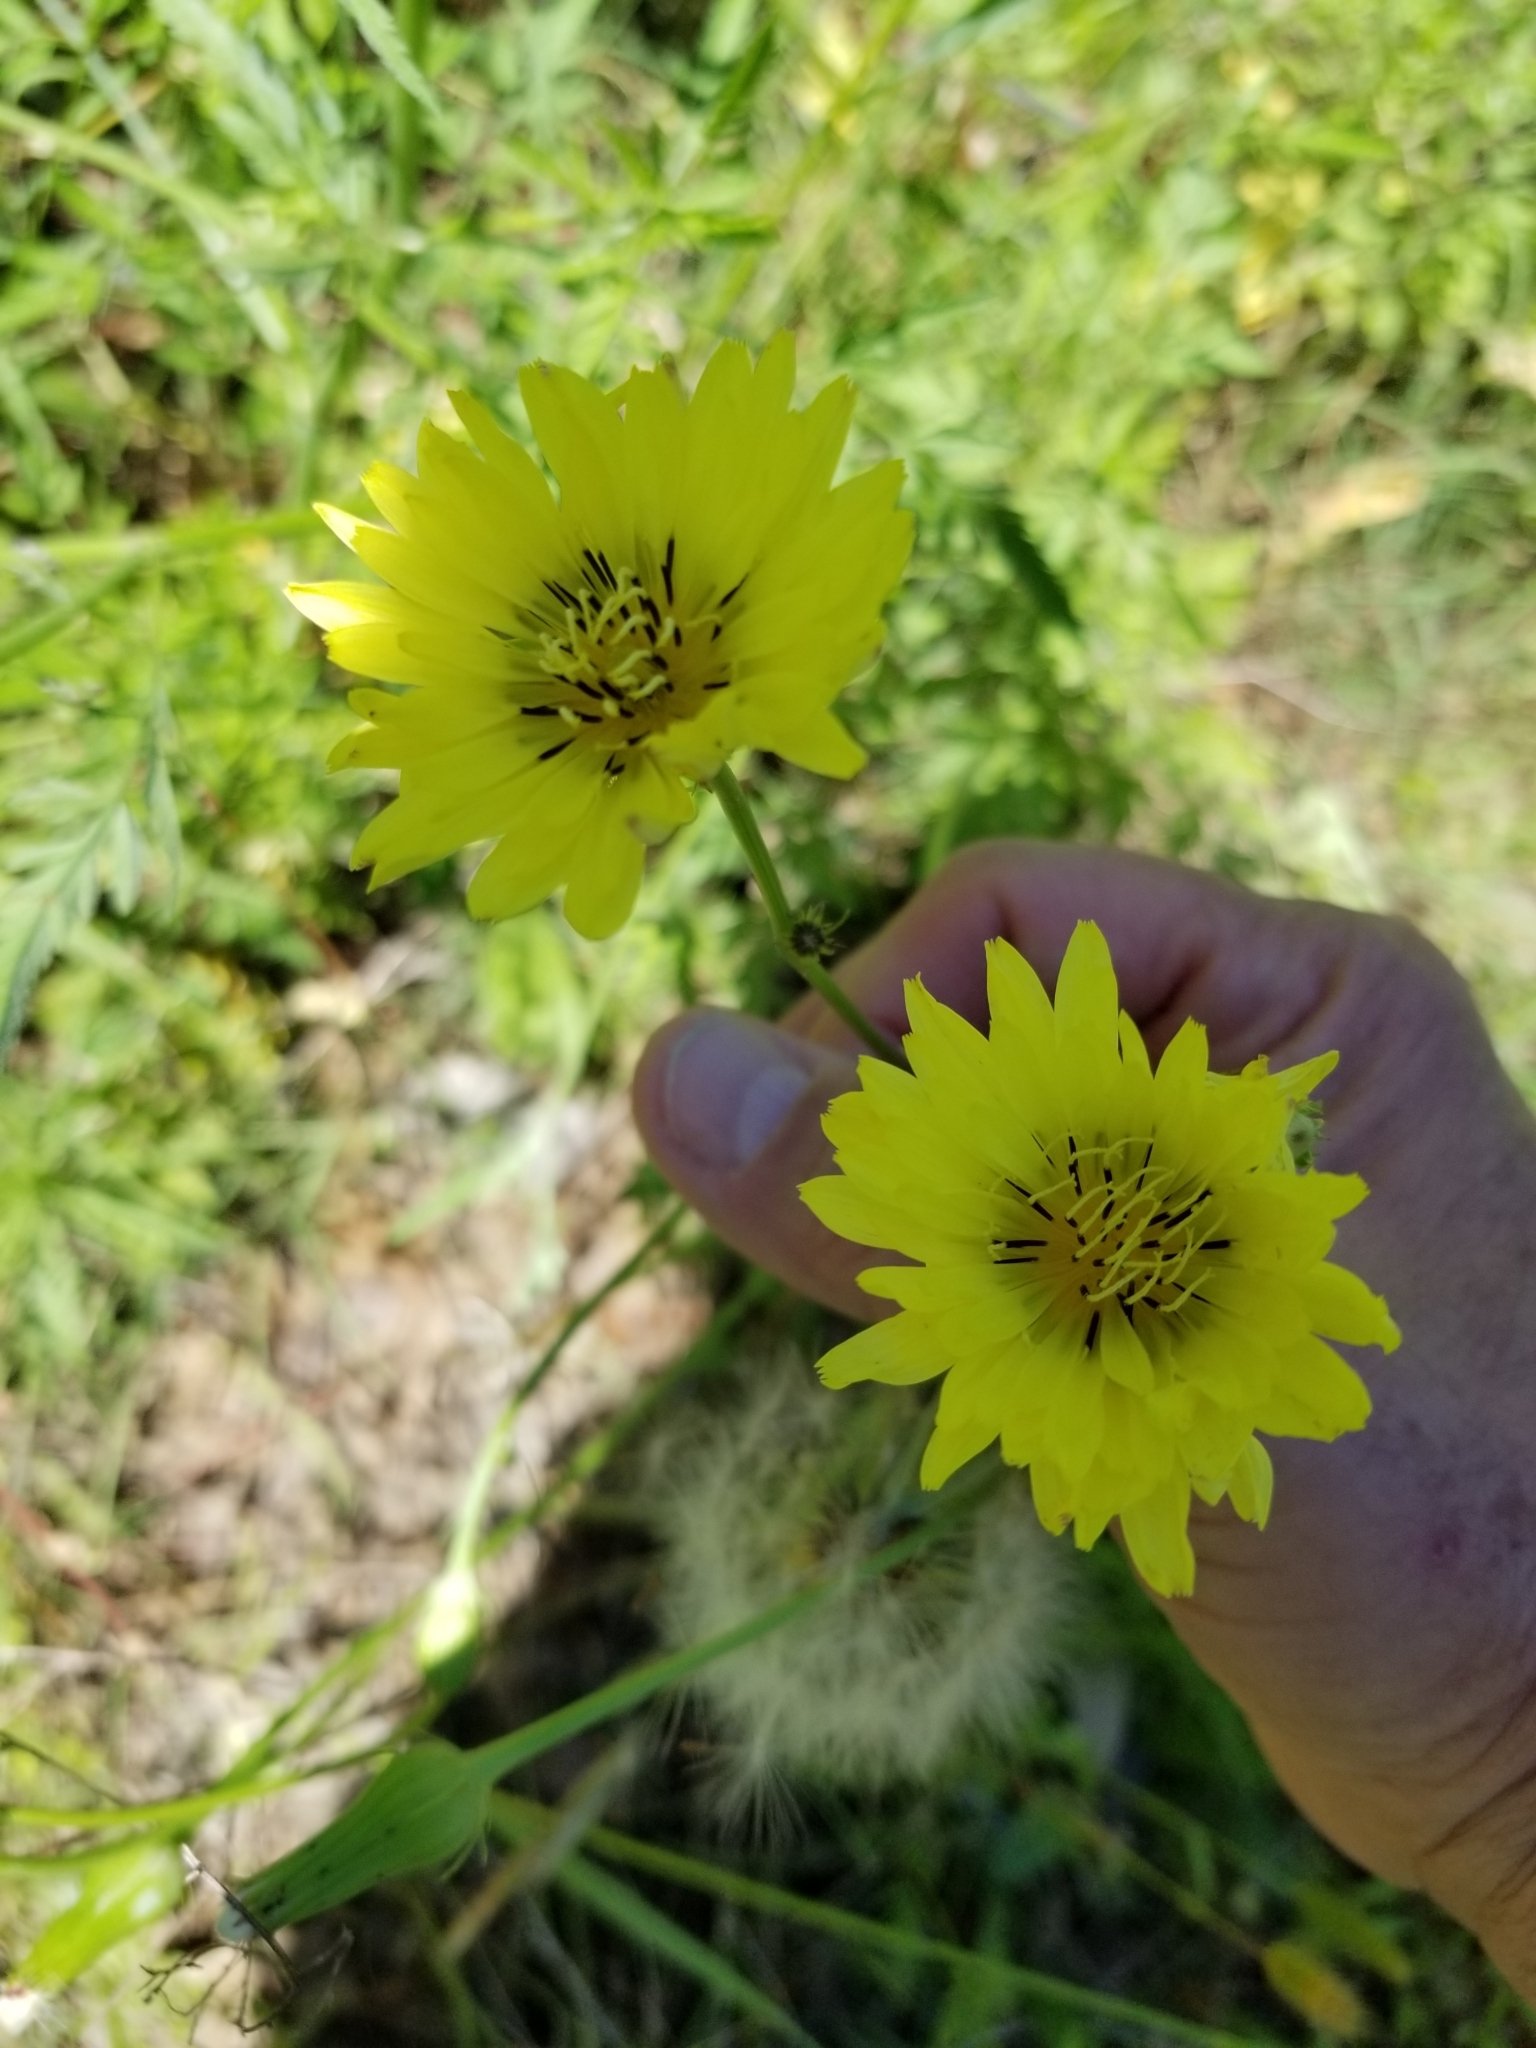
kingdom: Plantae
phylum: Tracheophyta
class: Magnoliopsida
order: Asterales
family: Asteraceae
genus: Pyrrhopappus
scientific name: Pyrrhopappus pauciflorus
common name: Texas false dandelion
